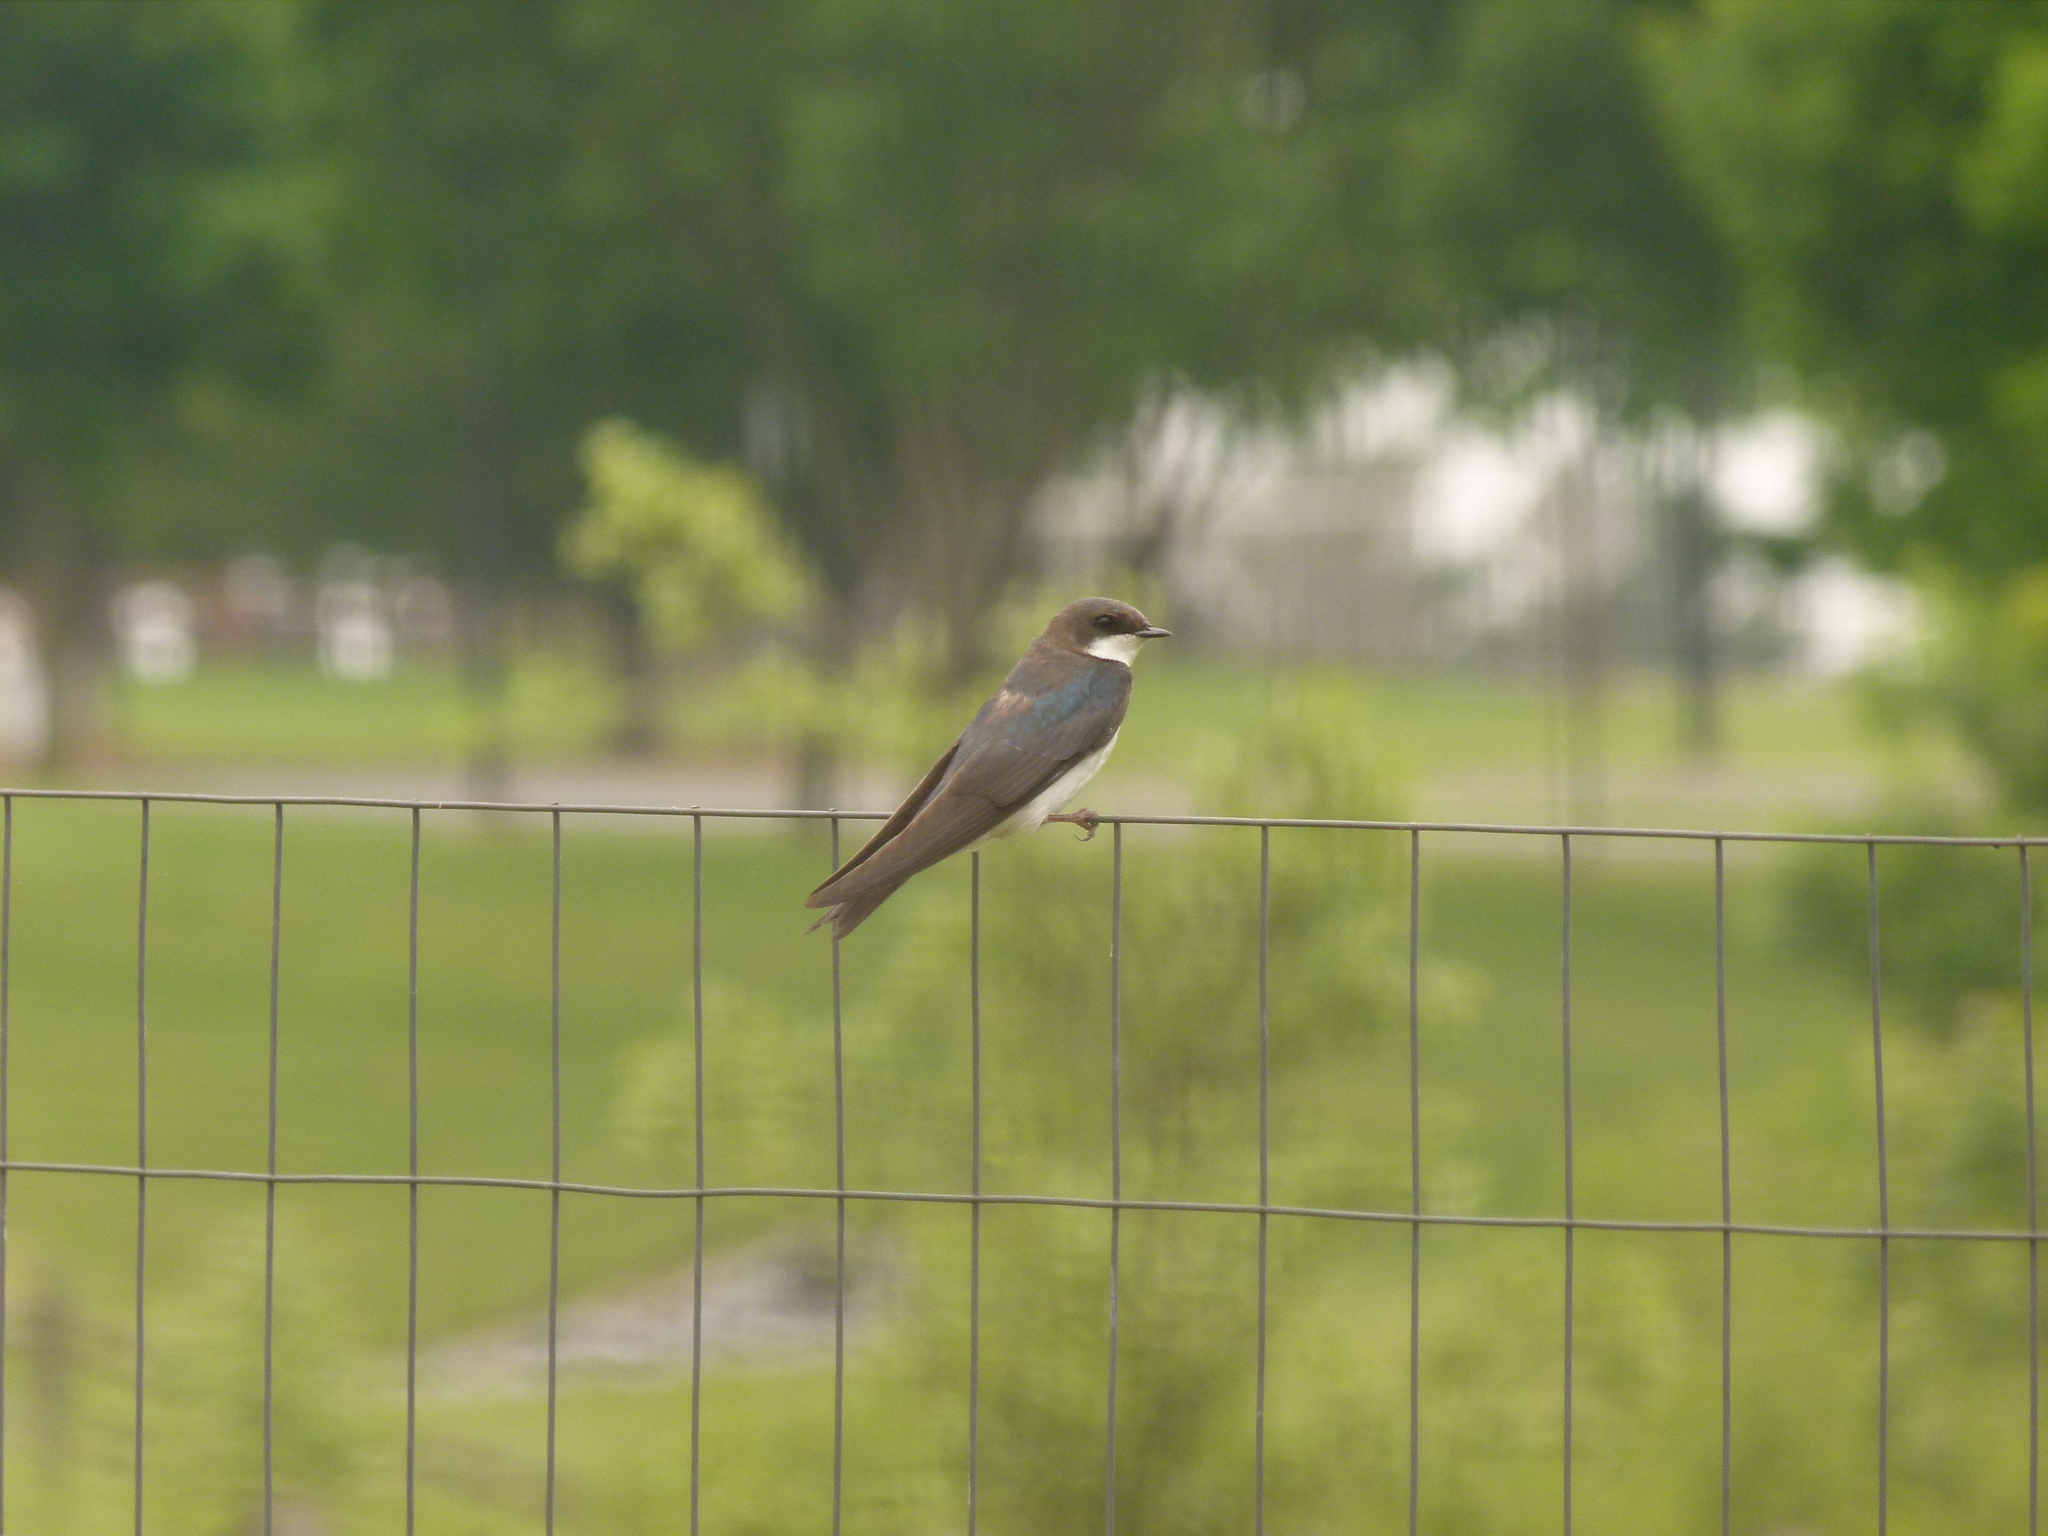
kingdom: Animalia
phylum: Chordata
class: Aves
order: Passeriformes
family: Hirundinidae
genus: Tachycineta
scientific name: Tachycineta bicolor
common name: Tree swallow
